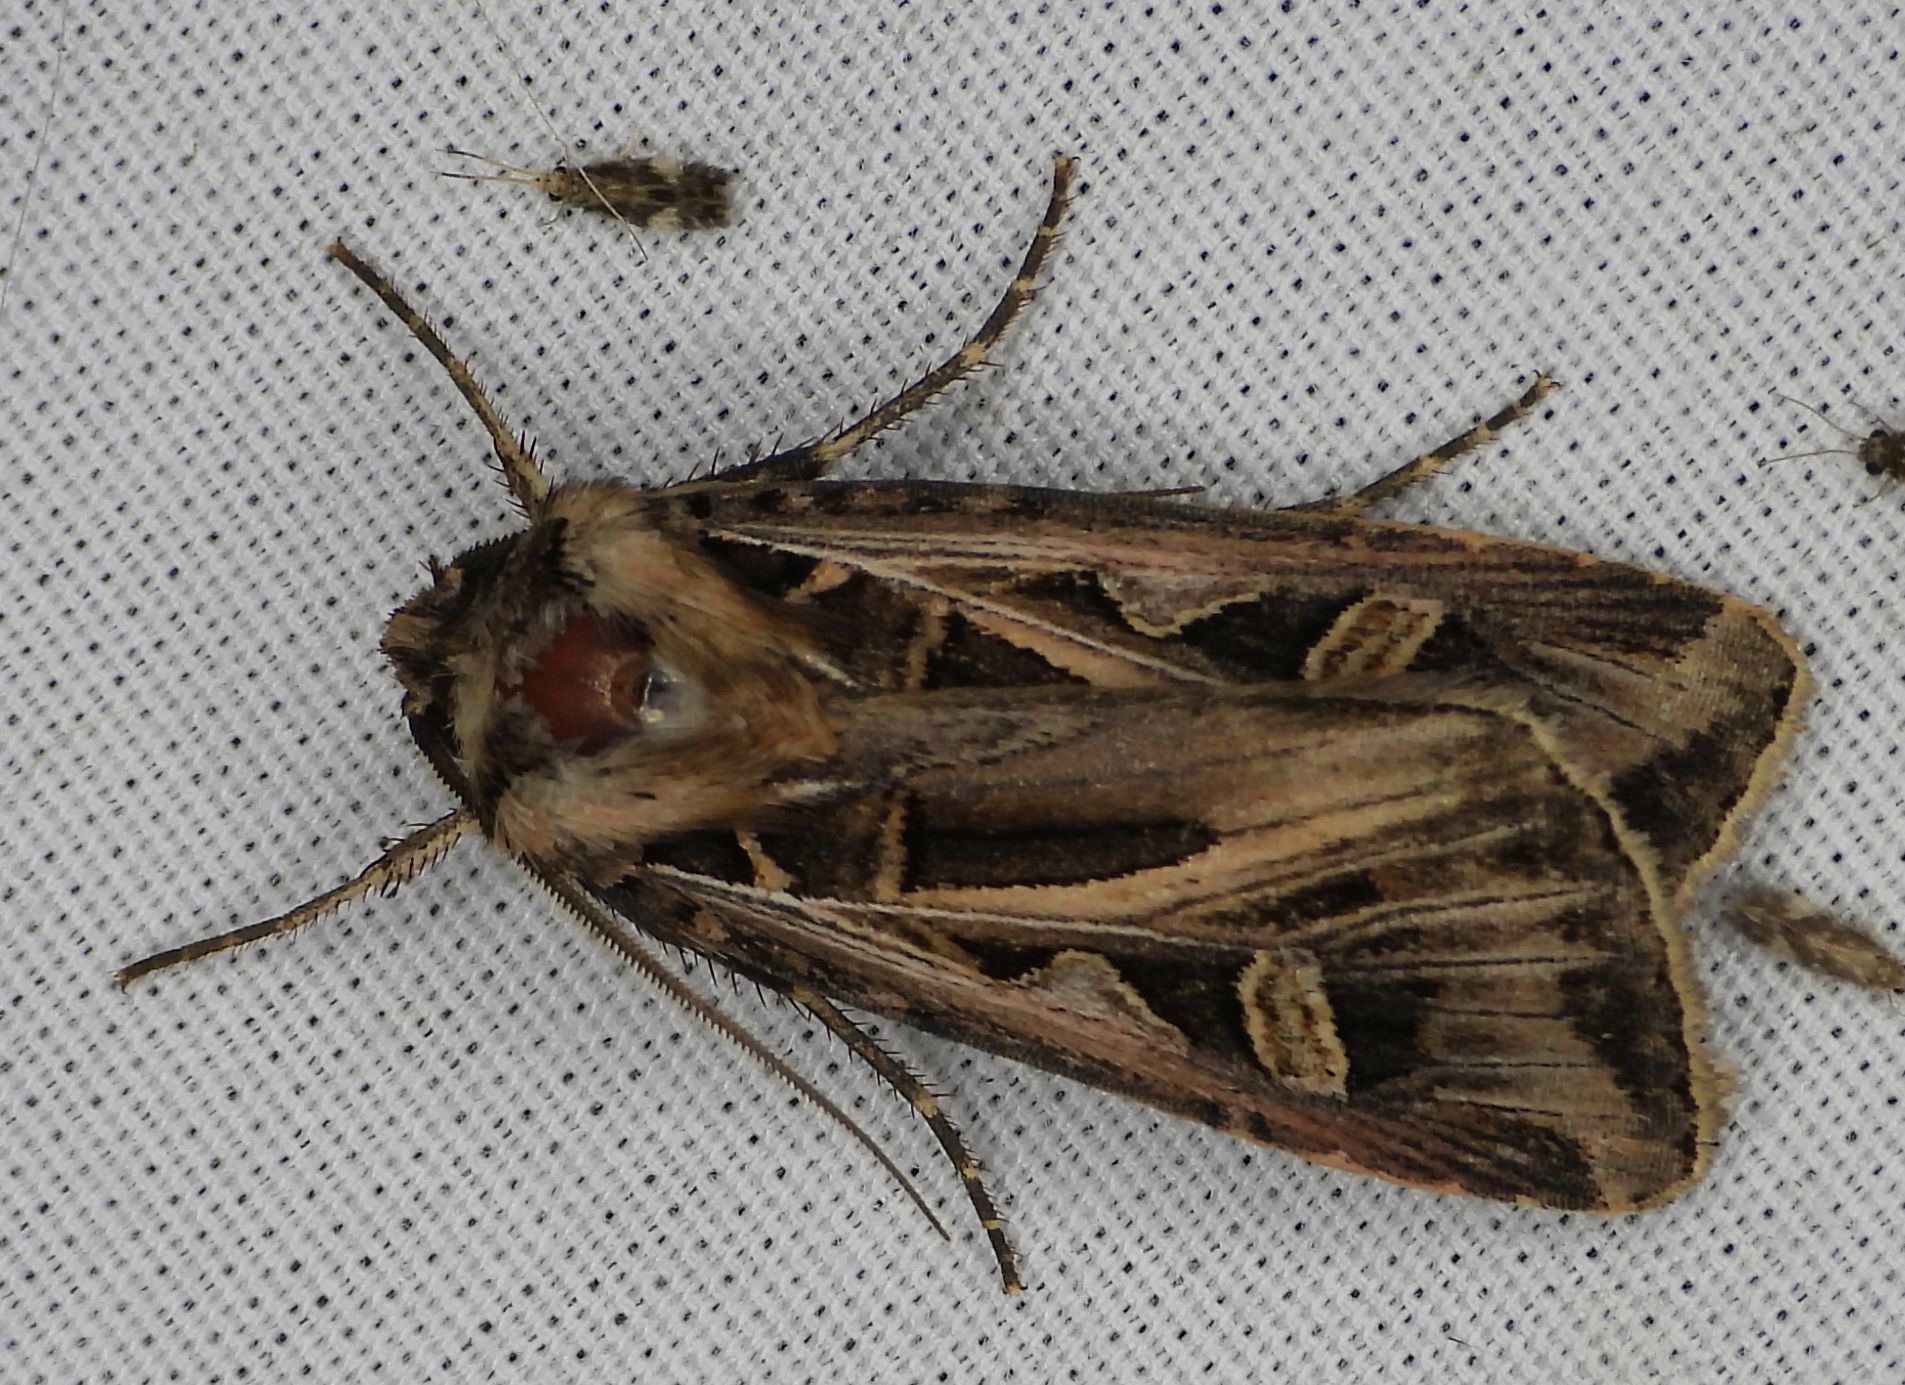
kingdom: Animalia
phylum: Arthropoda
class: Insecta
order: Lepidoptera
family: Noctuidae
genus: Feltia
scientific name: Feltia jaculifera
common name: Dingy cutworm moth
